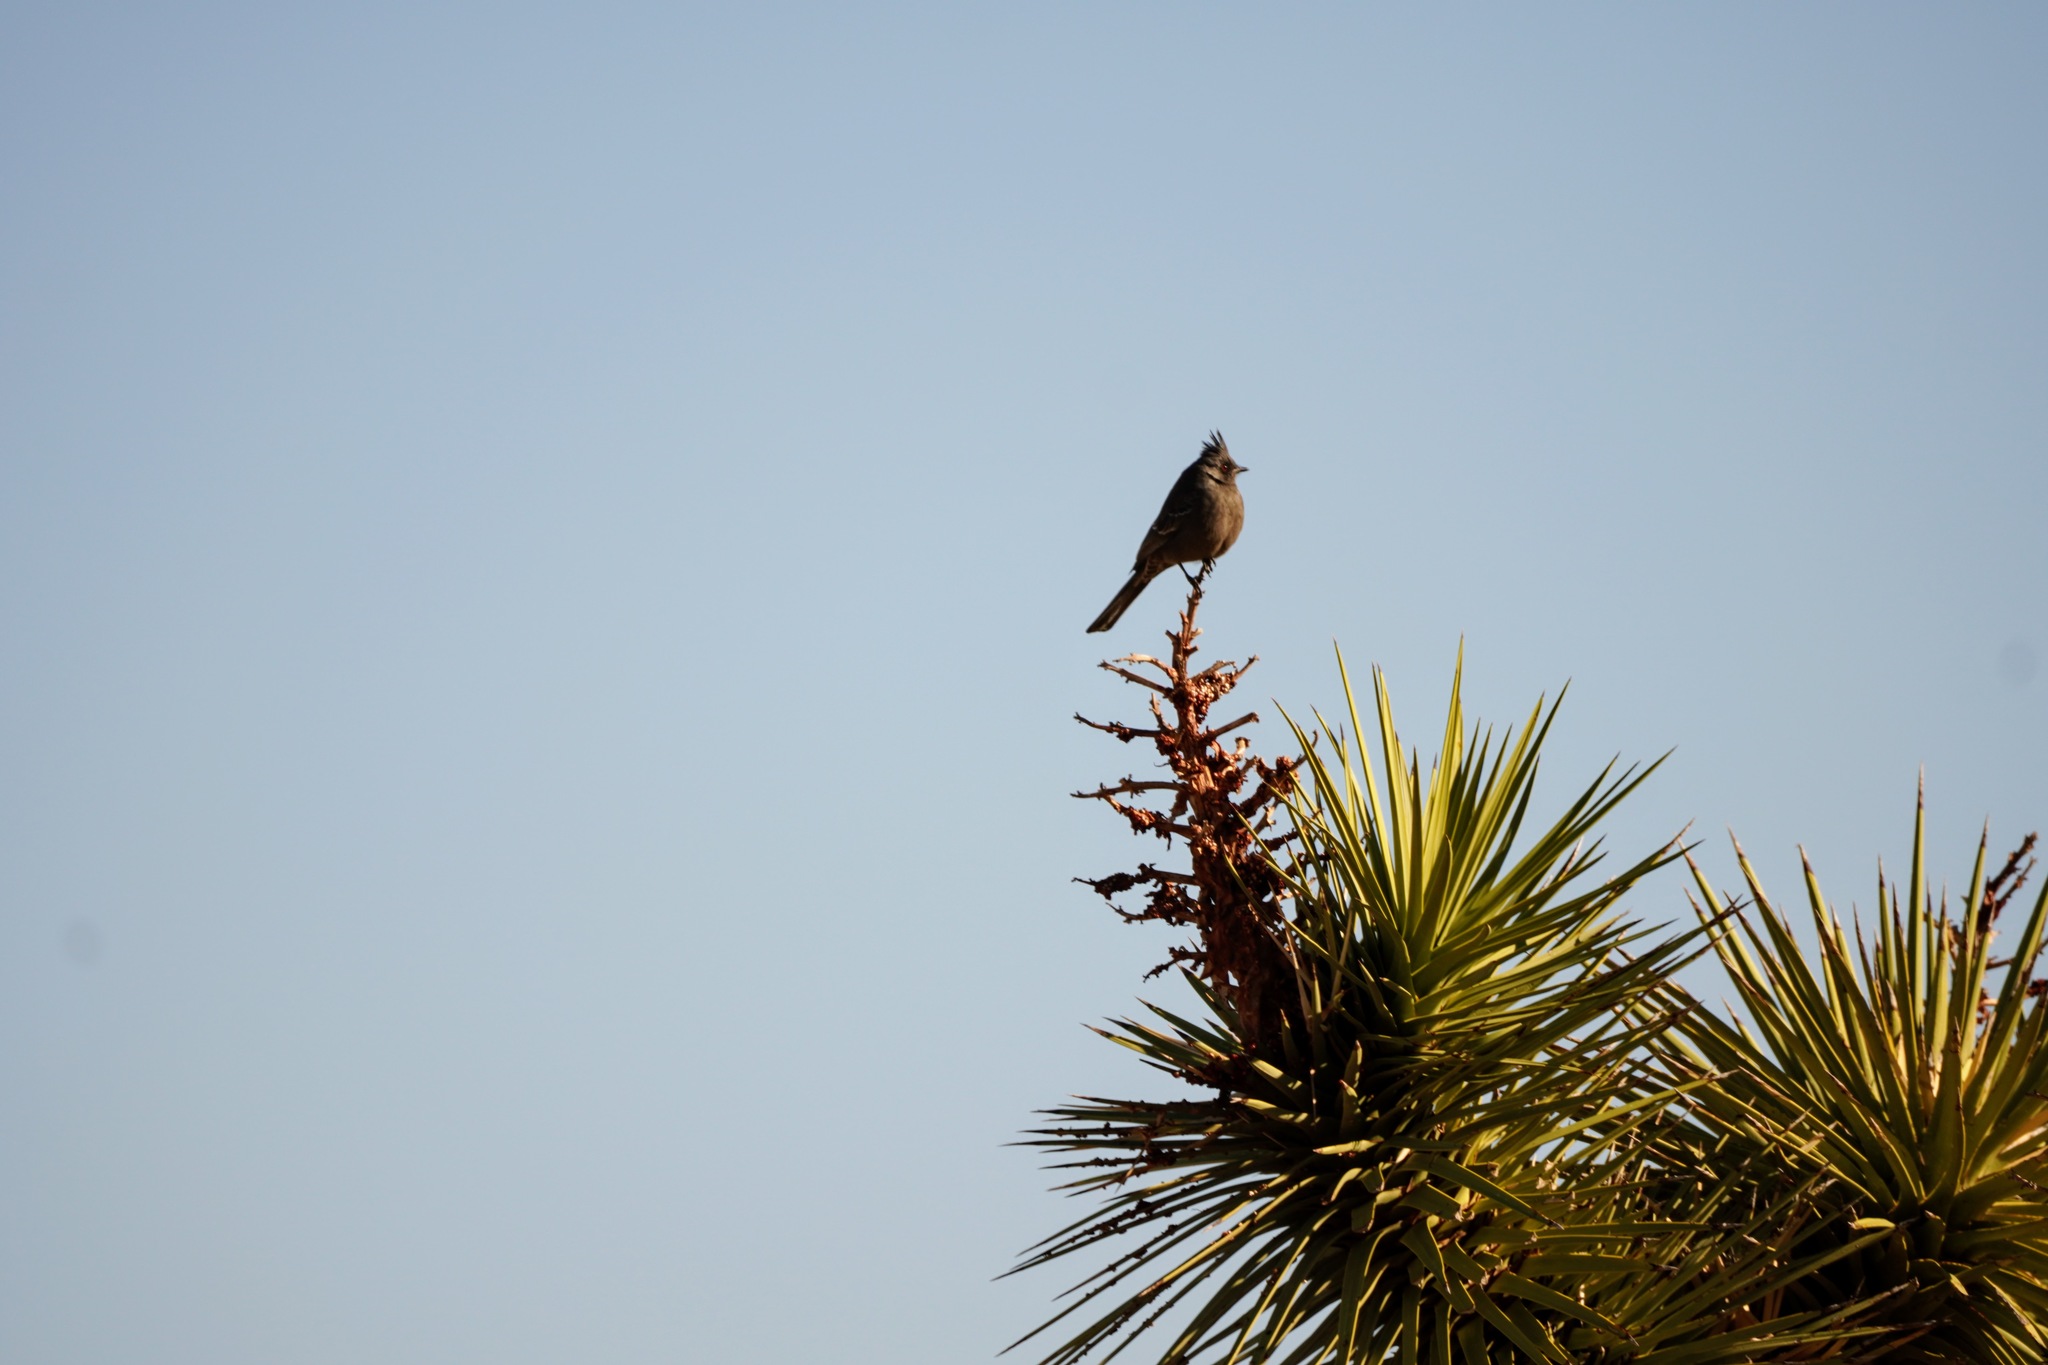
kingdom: Animalia
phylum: Chordata
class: Aves
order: Passeriformes
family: Ptilogonatidae
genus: Phainopepla
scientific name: Phainopepla nitens
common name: Phainopepla
